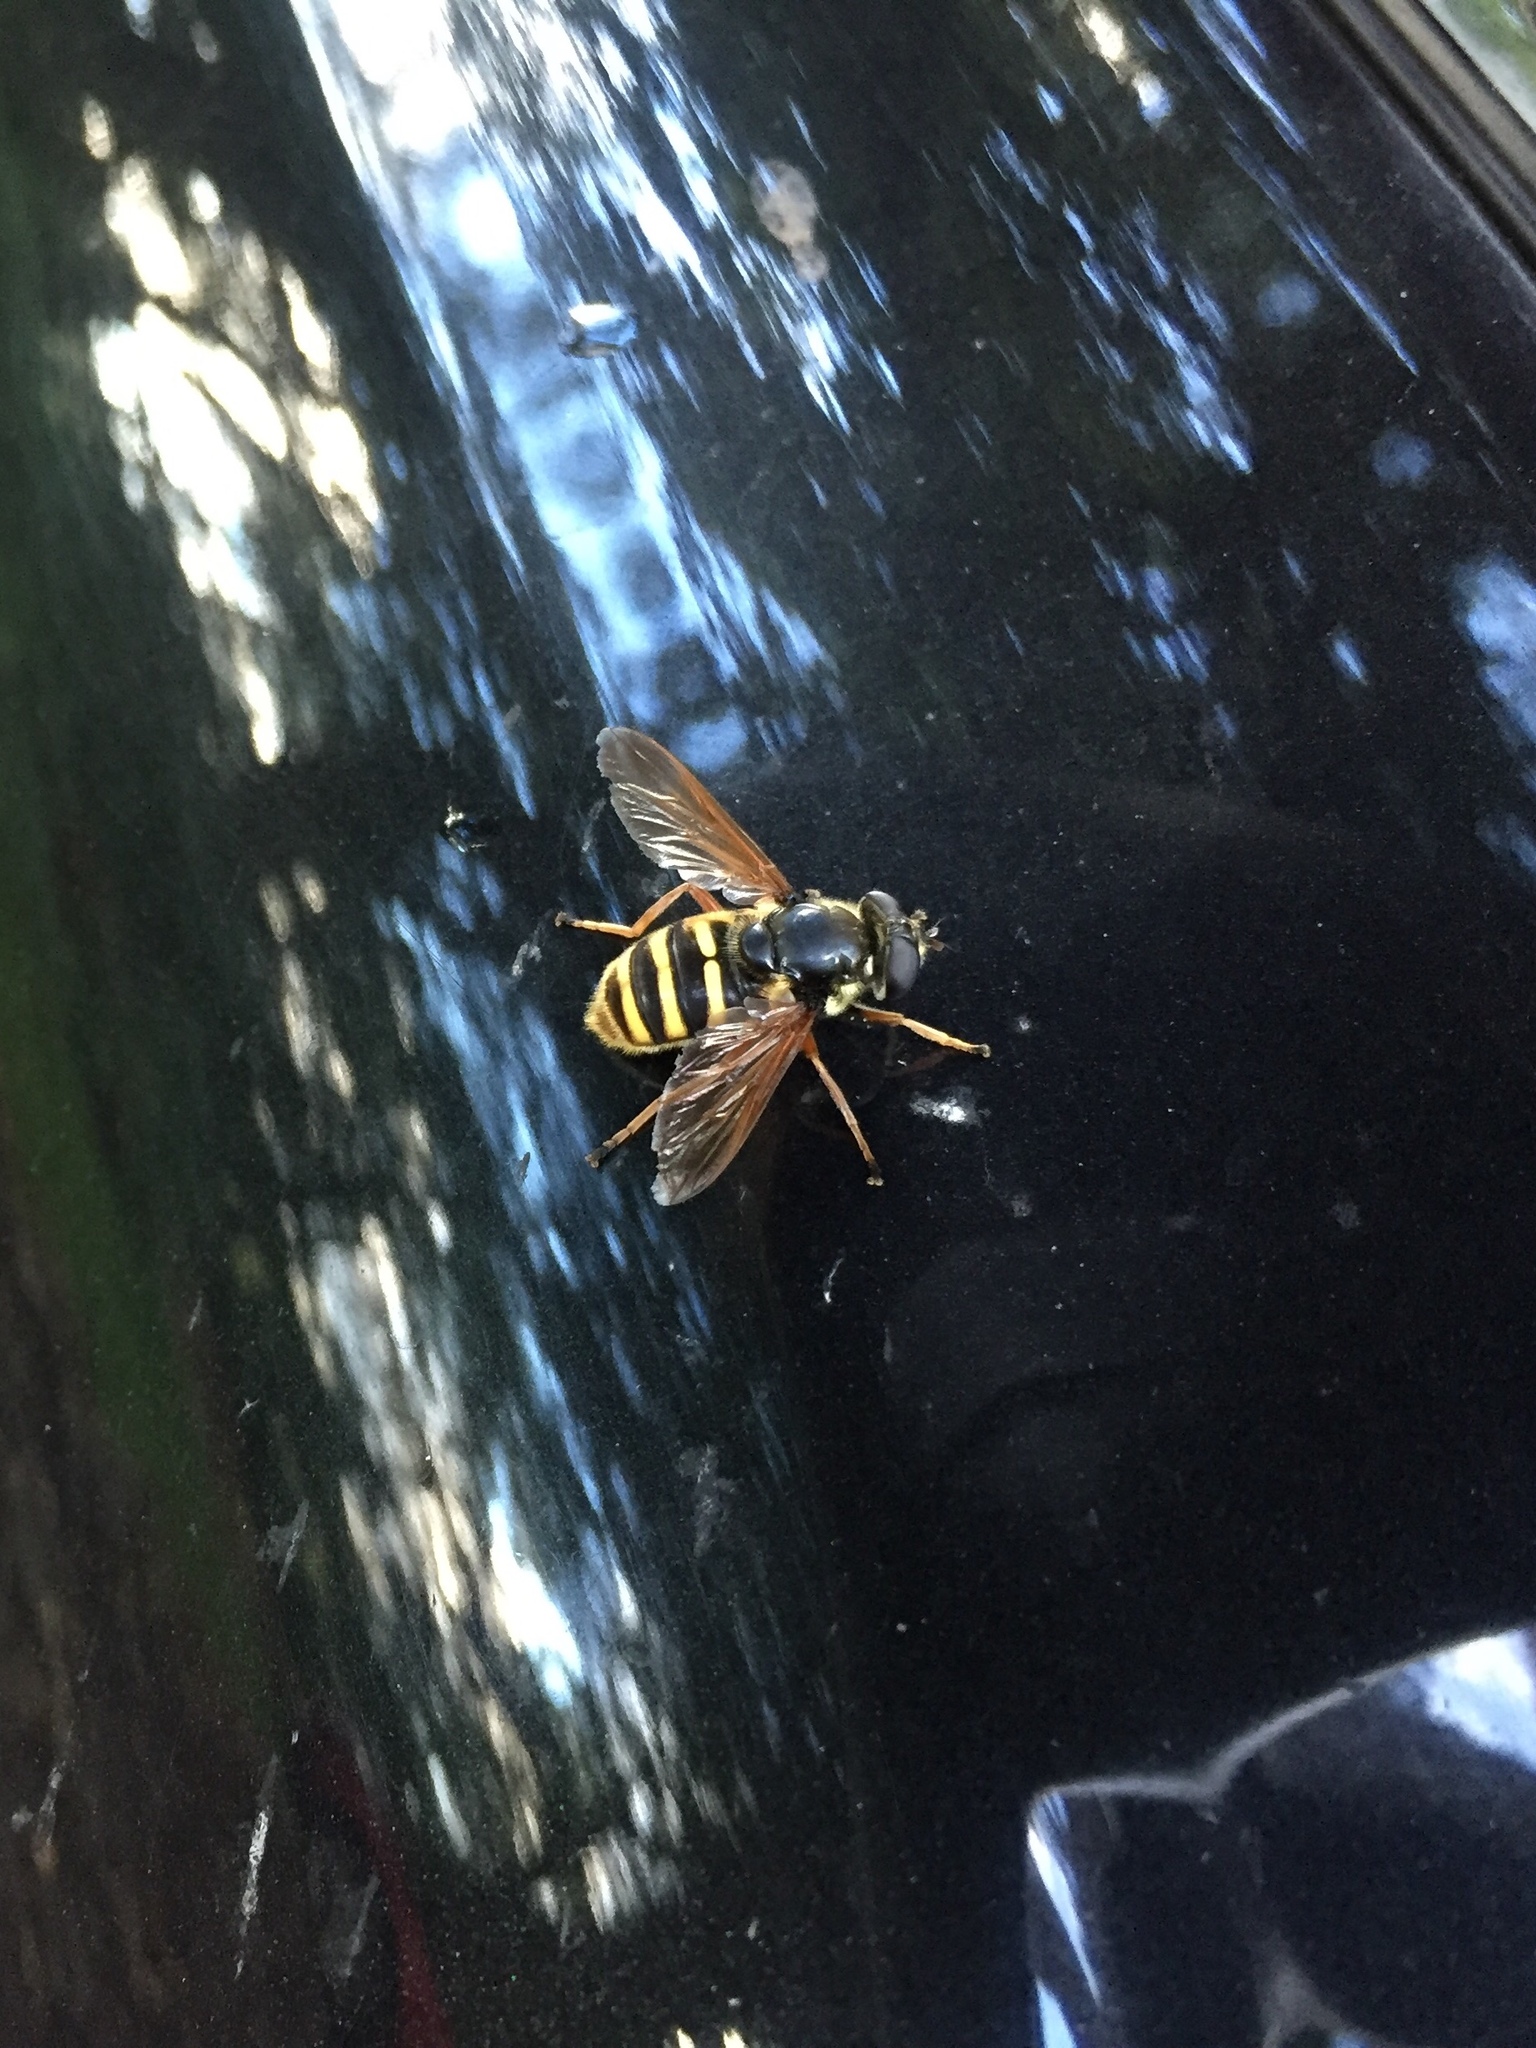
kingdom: Animalia
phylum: Arthropoda
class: Insecta
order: Diptera
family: Syrphidae
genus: Sericomyia
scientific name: Sericomyia silentis
